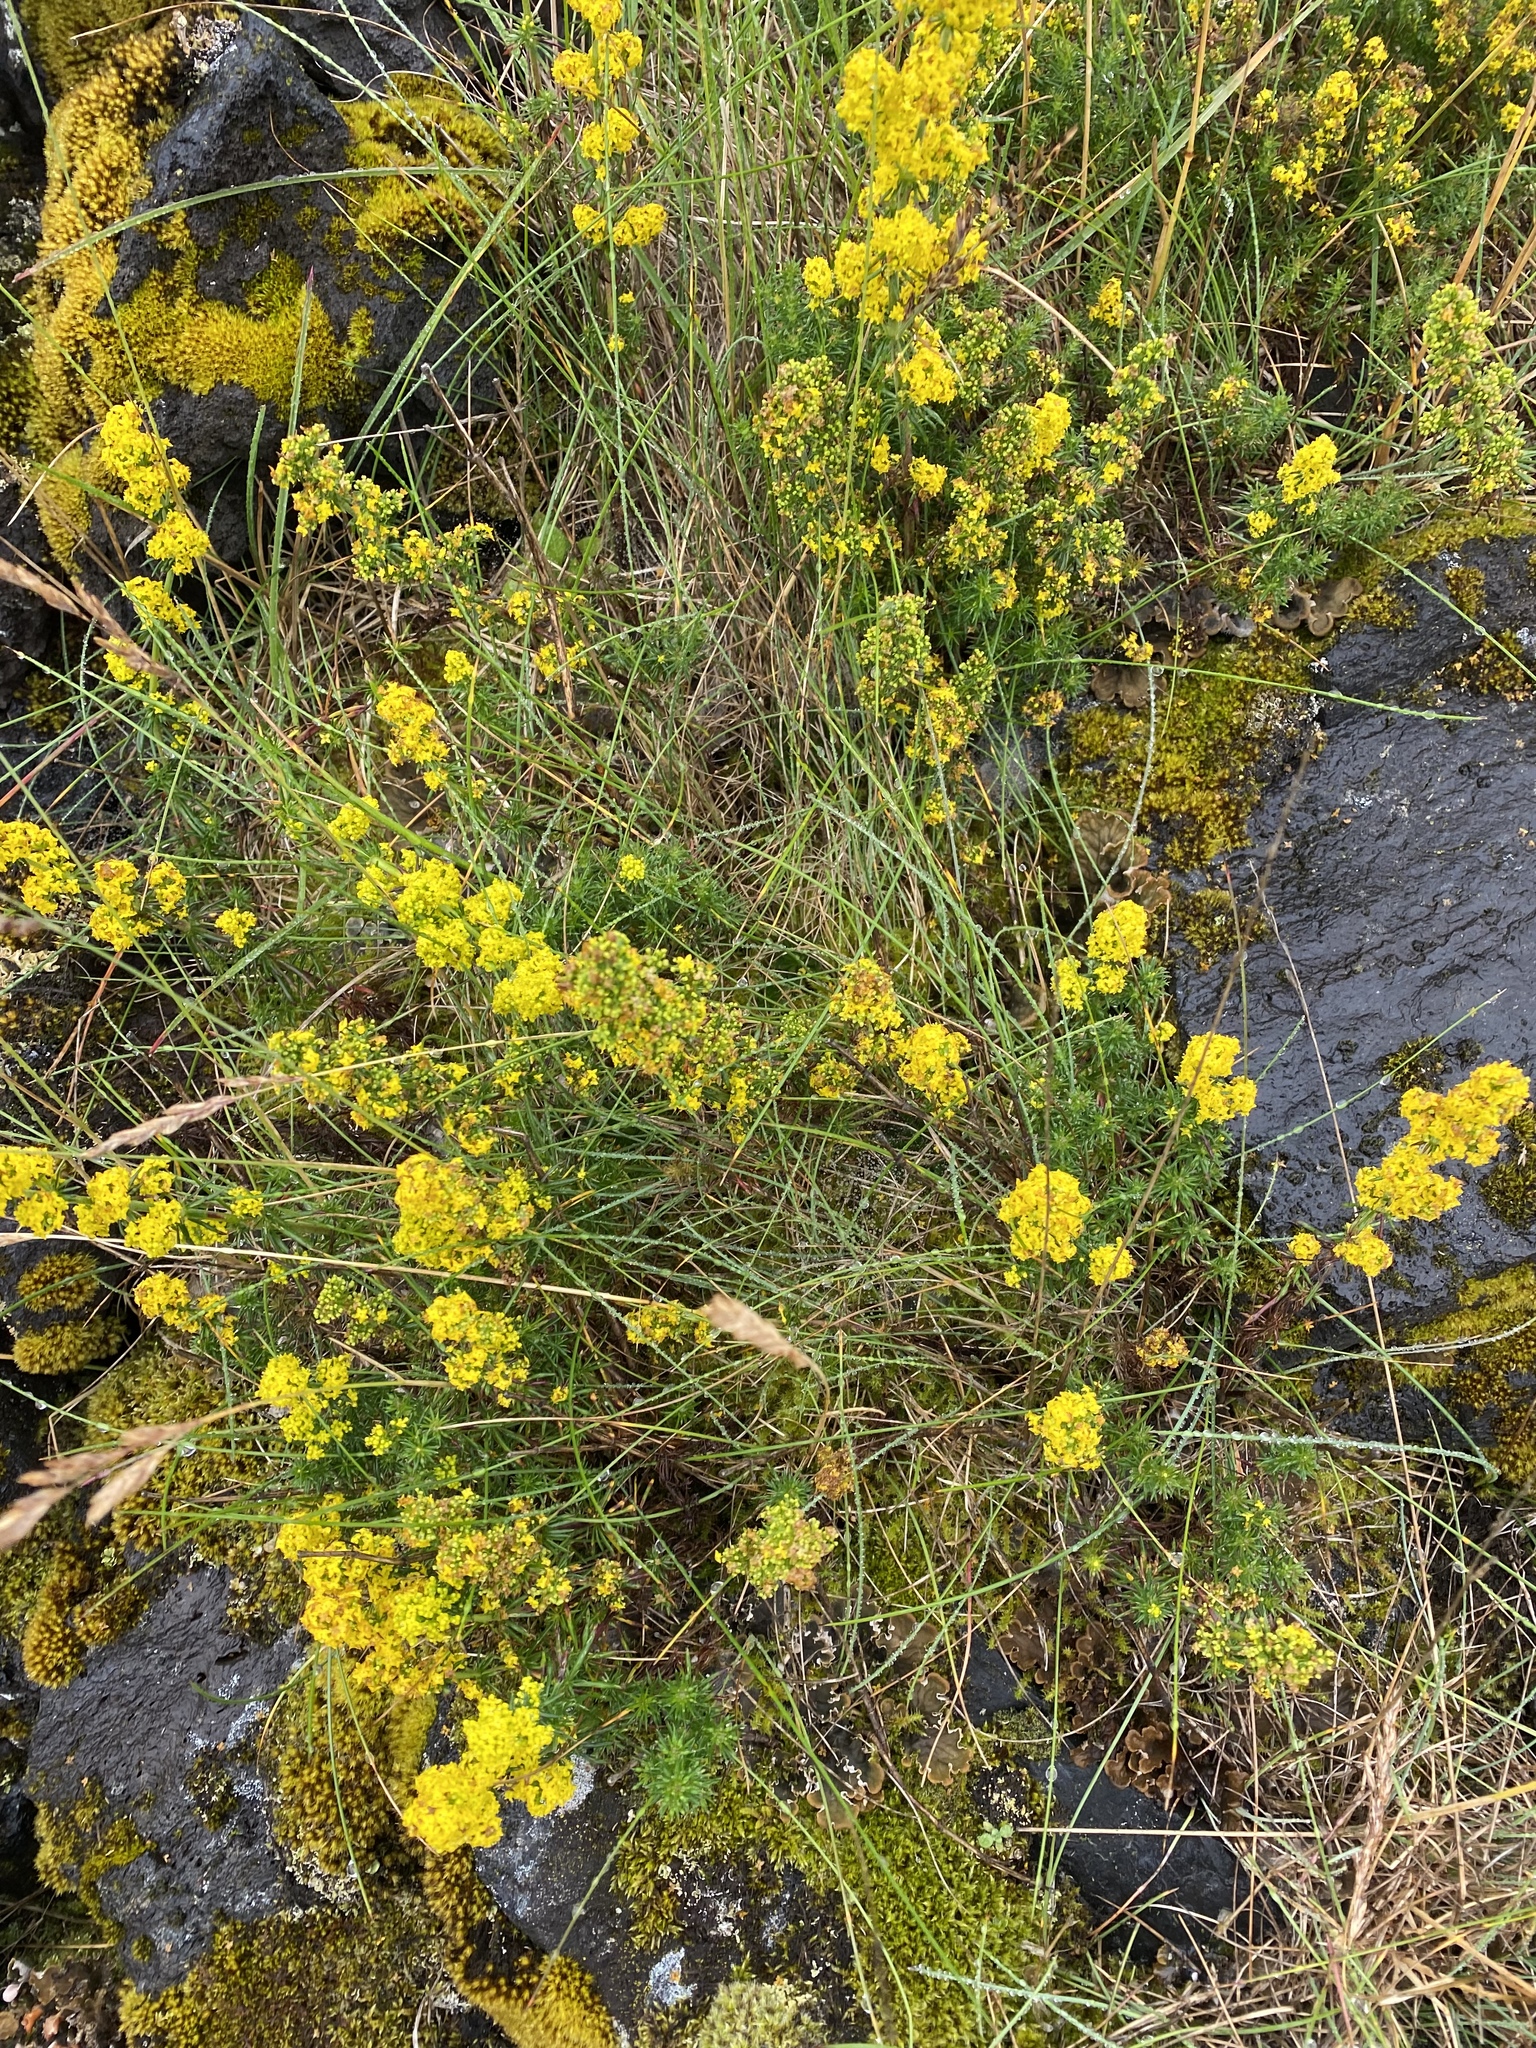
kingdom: Plantae
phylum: Tracheophyta
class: Magnoliopsida
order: Gentianales
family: Rubiaceae
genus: Galium
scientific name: Galium verum
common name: Lady's bedstraw
